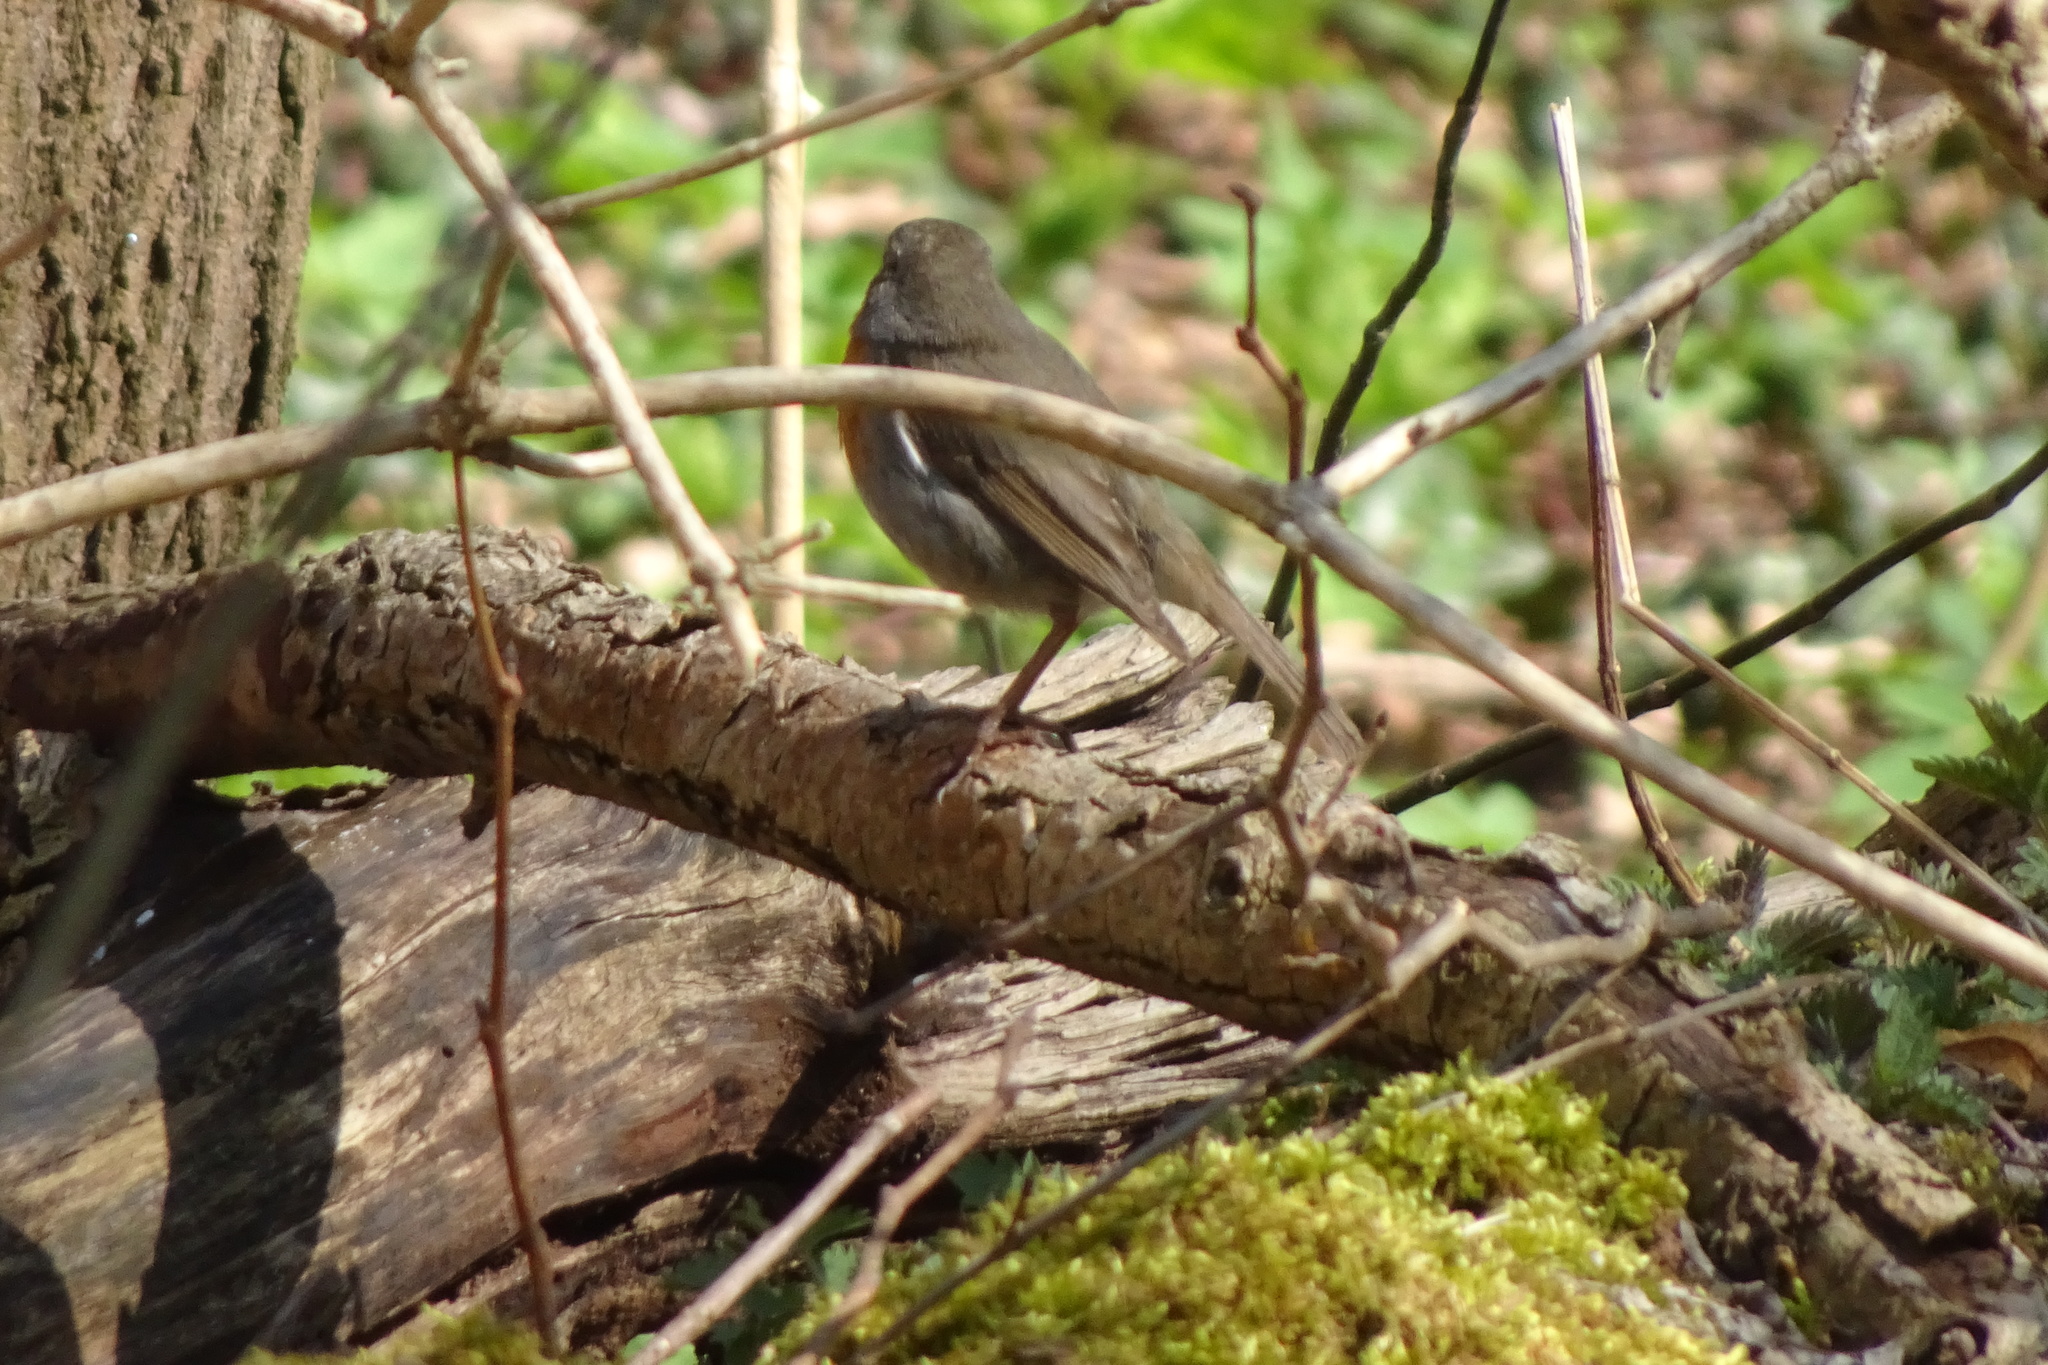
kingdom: Animalia
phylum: Chordata
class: Aves
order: Passeriformes
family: Muscicapidae
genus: Erithacus
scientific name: Erithacus rubecula
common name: European robin
